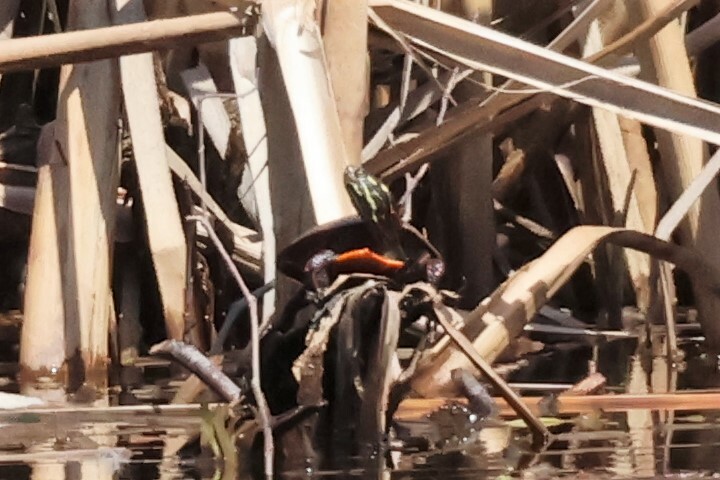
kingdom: Animalia
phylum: Chordata
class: Testudines
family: Emydidae
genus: Chrysemys
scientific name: Chrysemys picta
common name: Painted turtle
